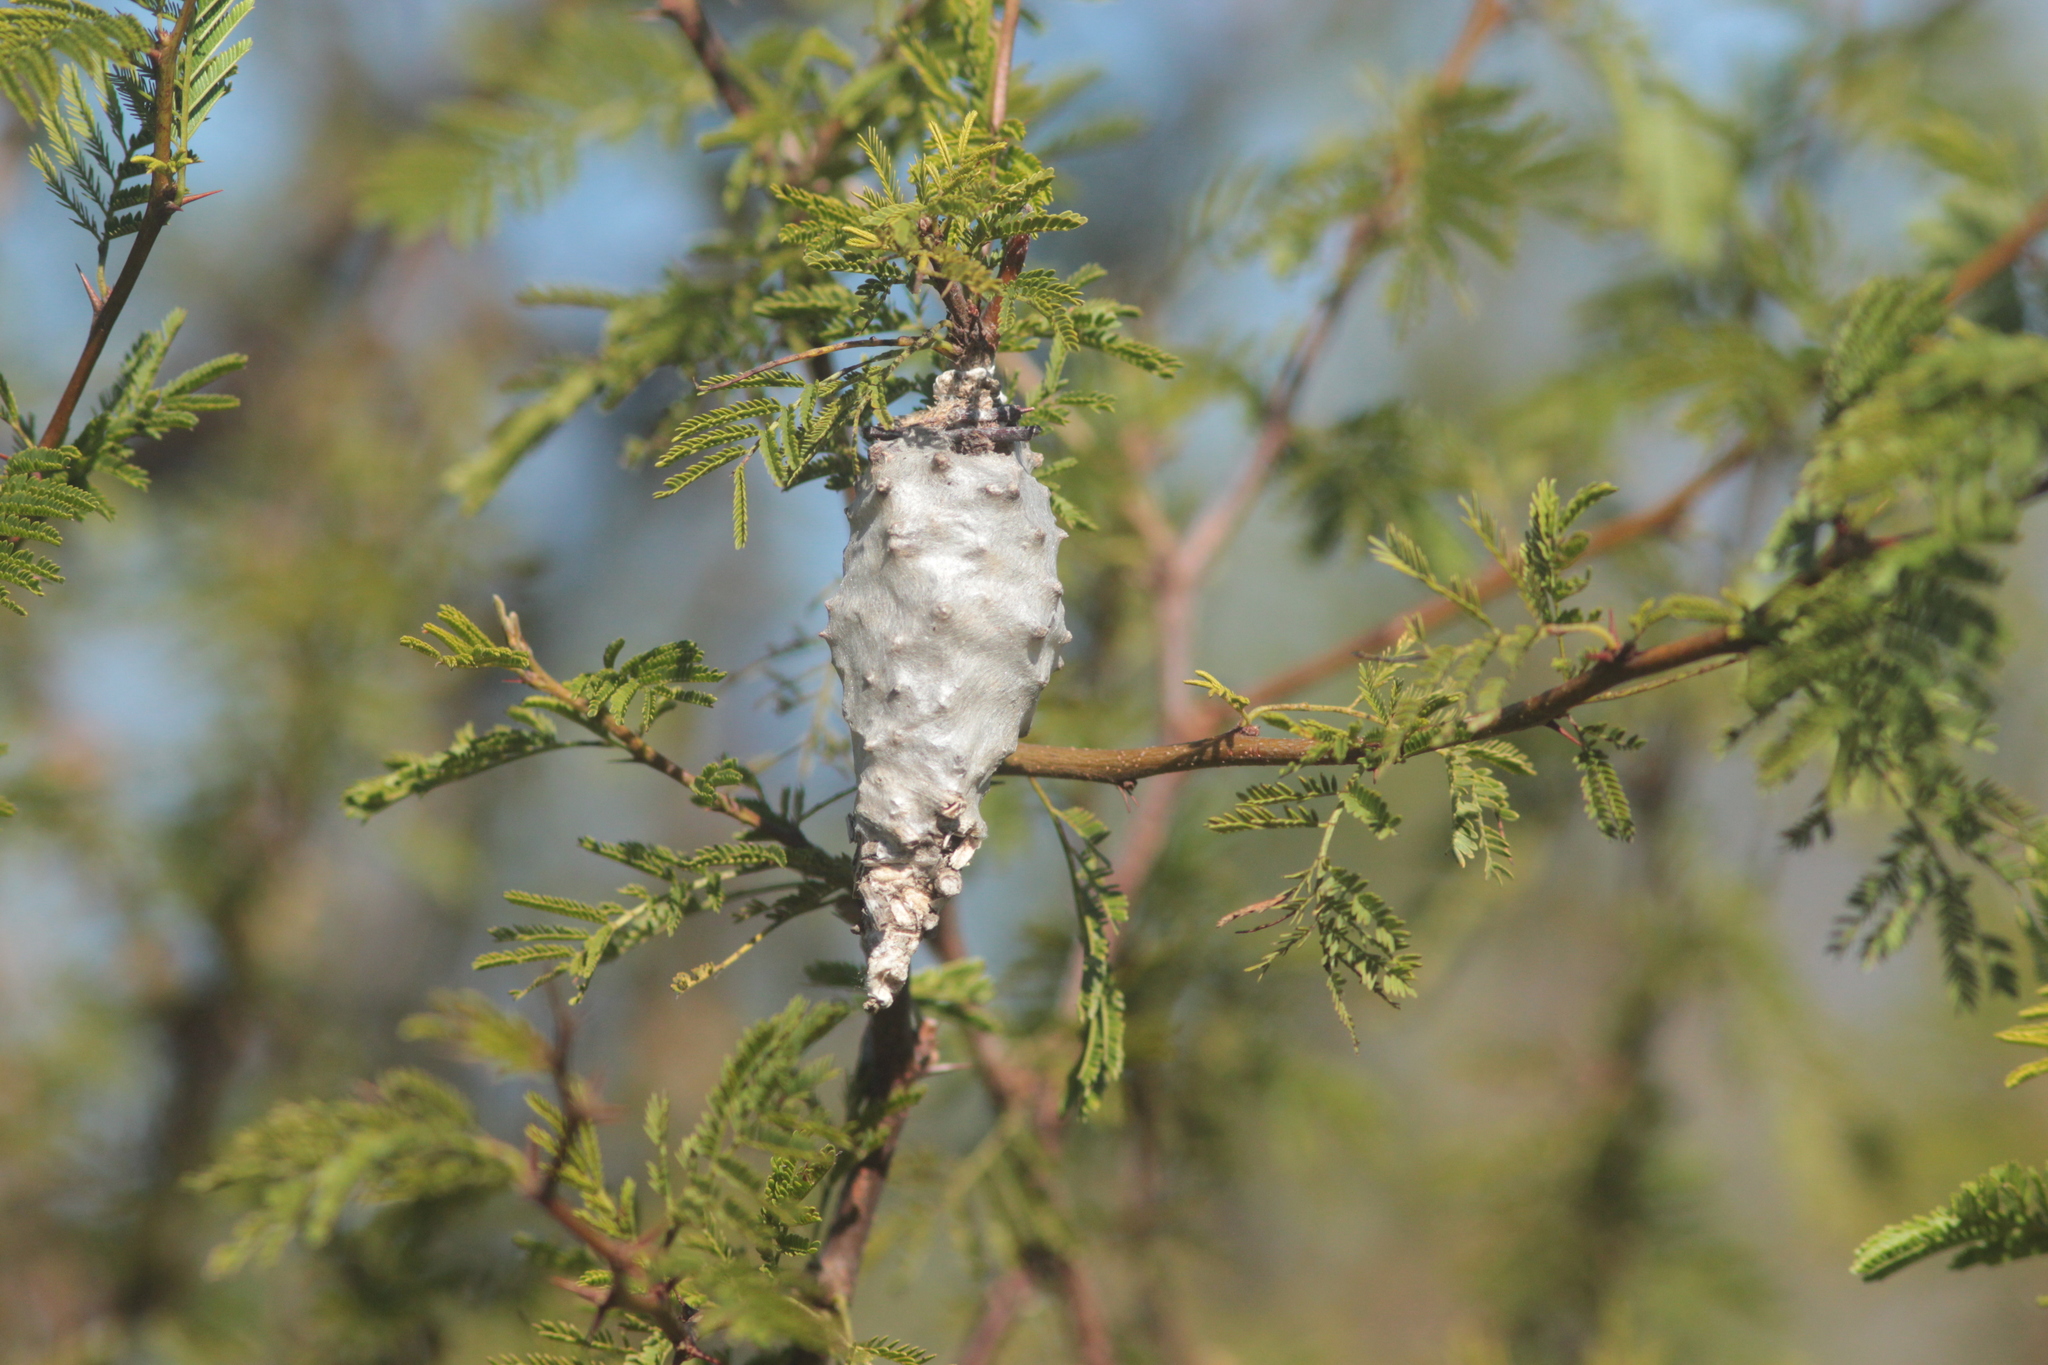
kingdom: Animalia
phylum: Arthropoda
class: Insecta
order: Lepidoptera
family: Psychidae
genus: Oiketicus
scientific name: Oiketicus
